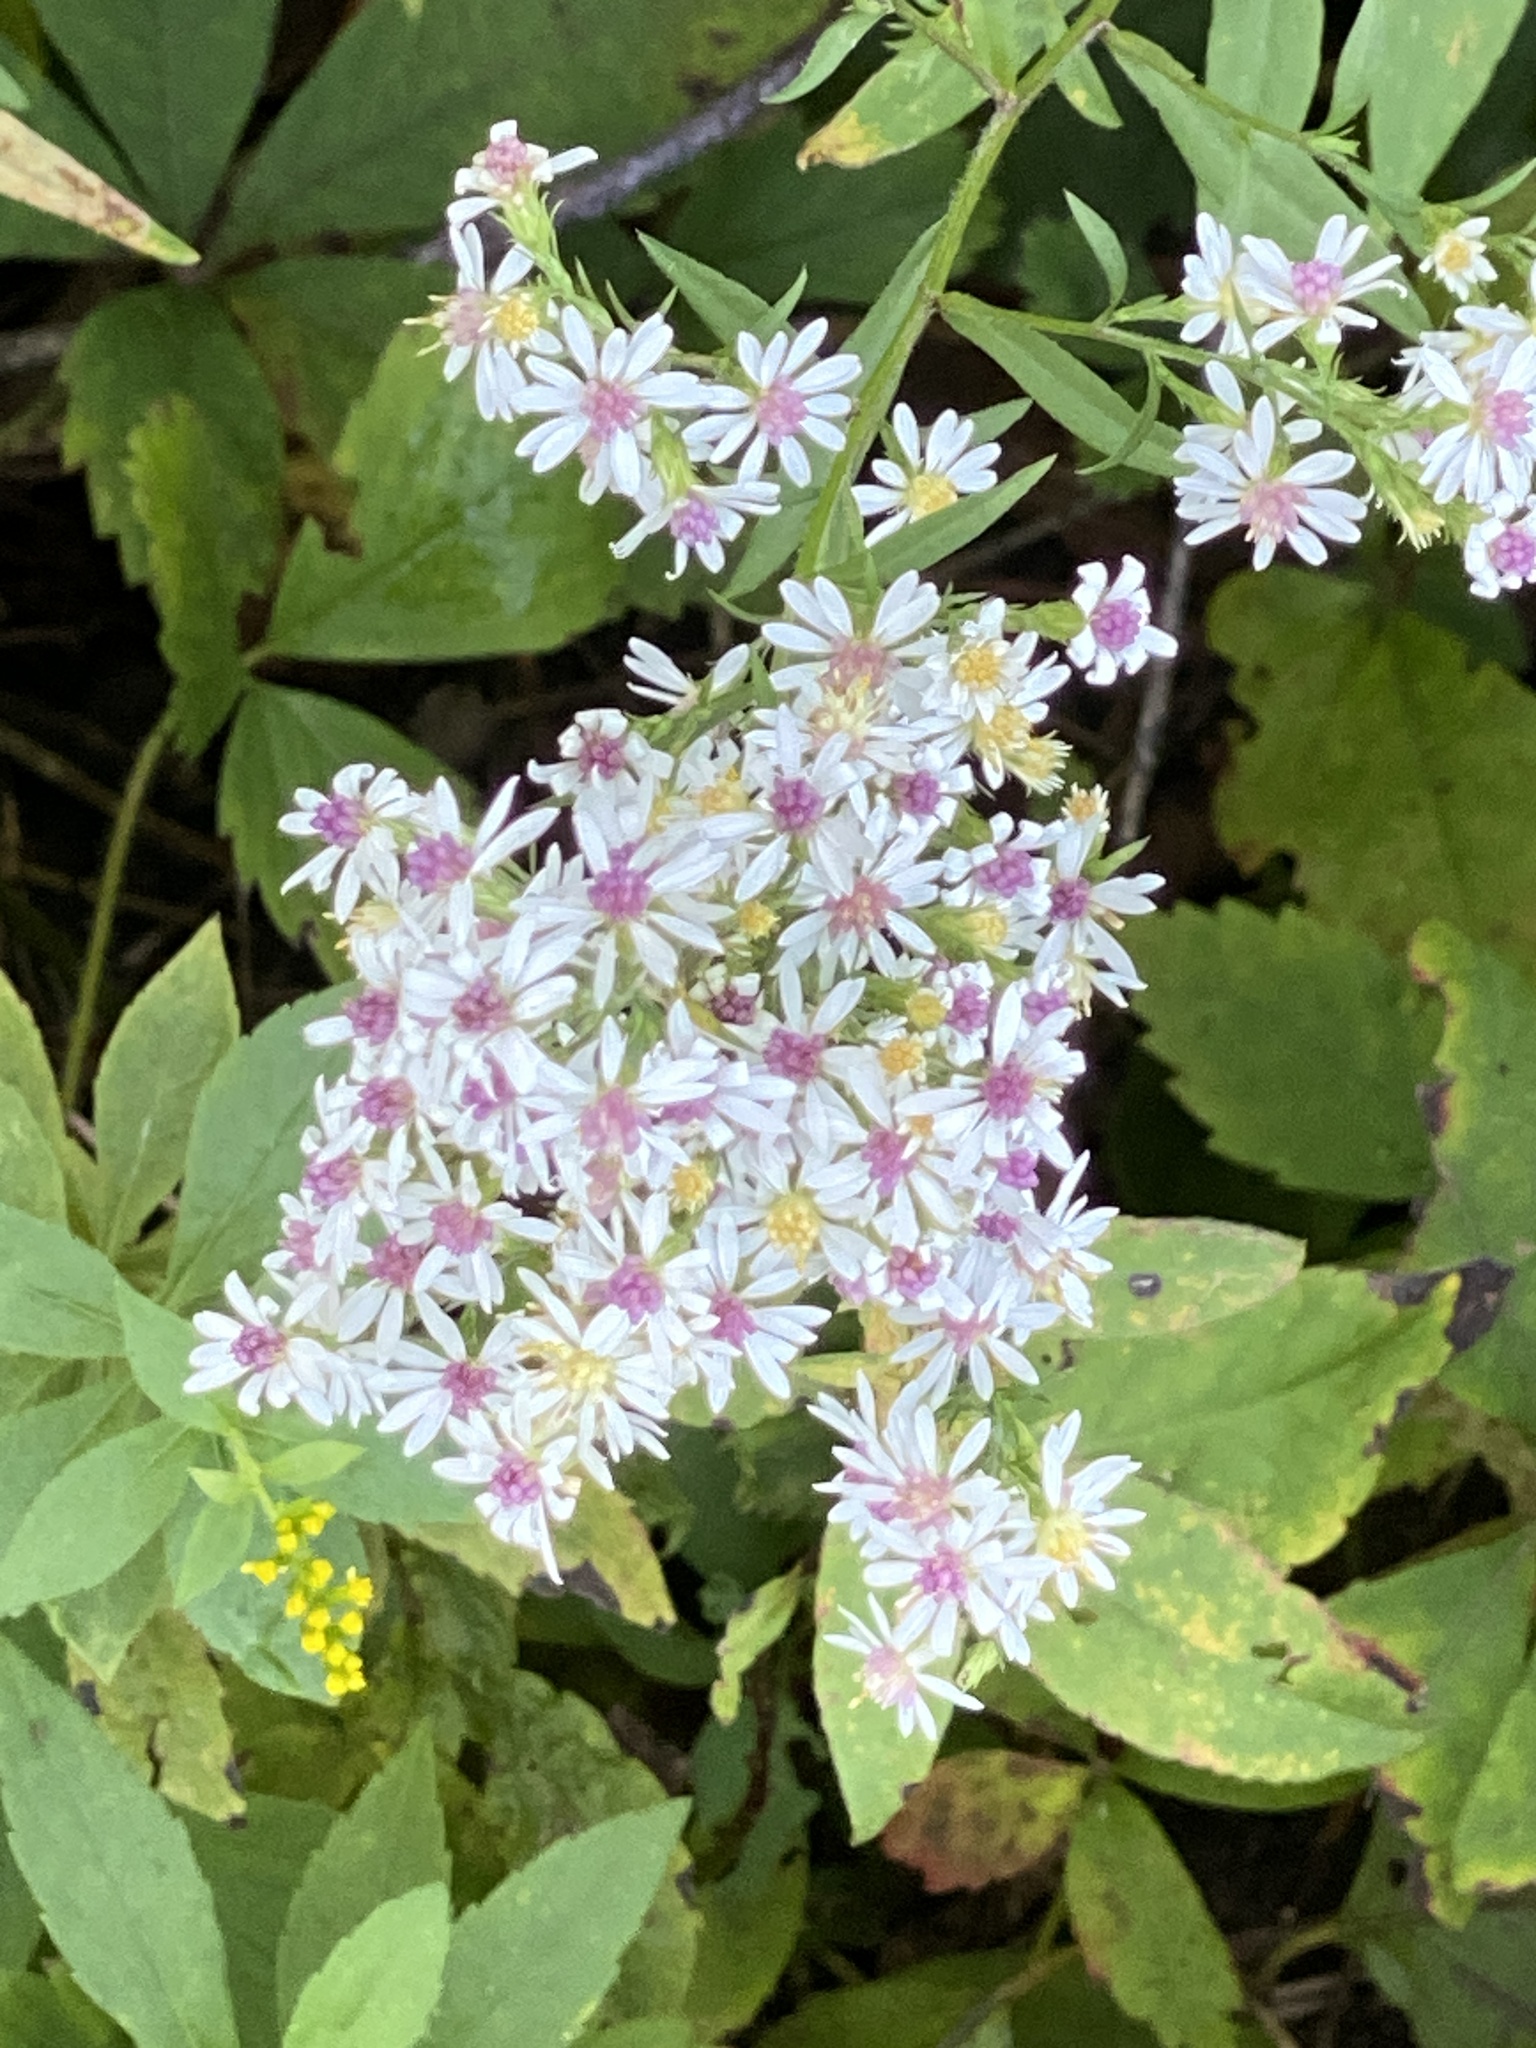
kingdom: Plantae
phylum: Tracheophyta
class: Magnoliopsida
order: Asterales
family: Asteraceae
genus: Symphyotrichum
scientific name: Symphyotrichum lateriflorum
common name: Calico aster
